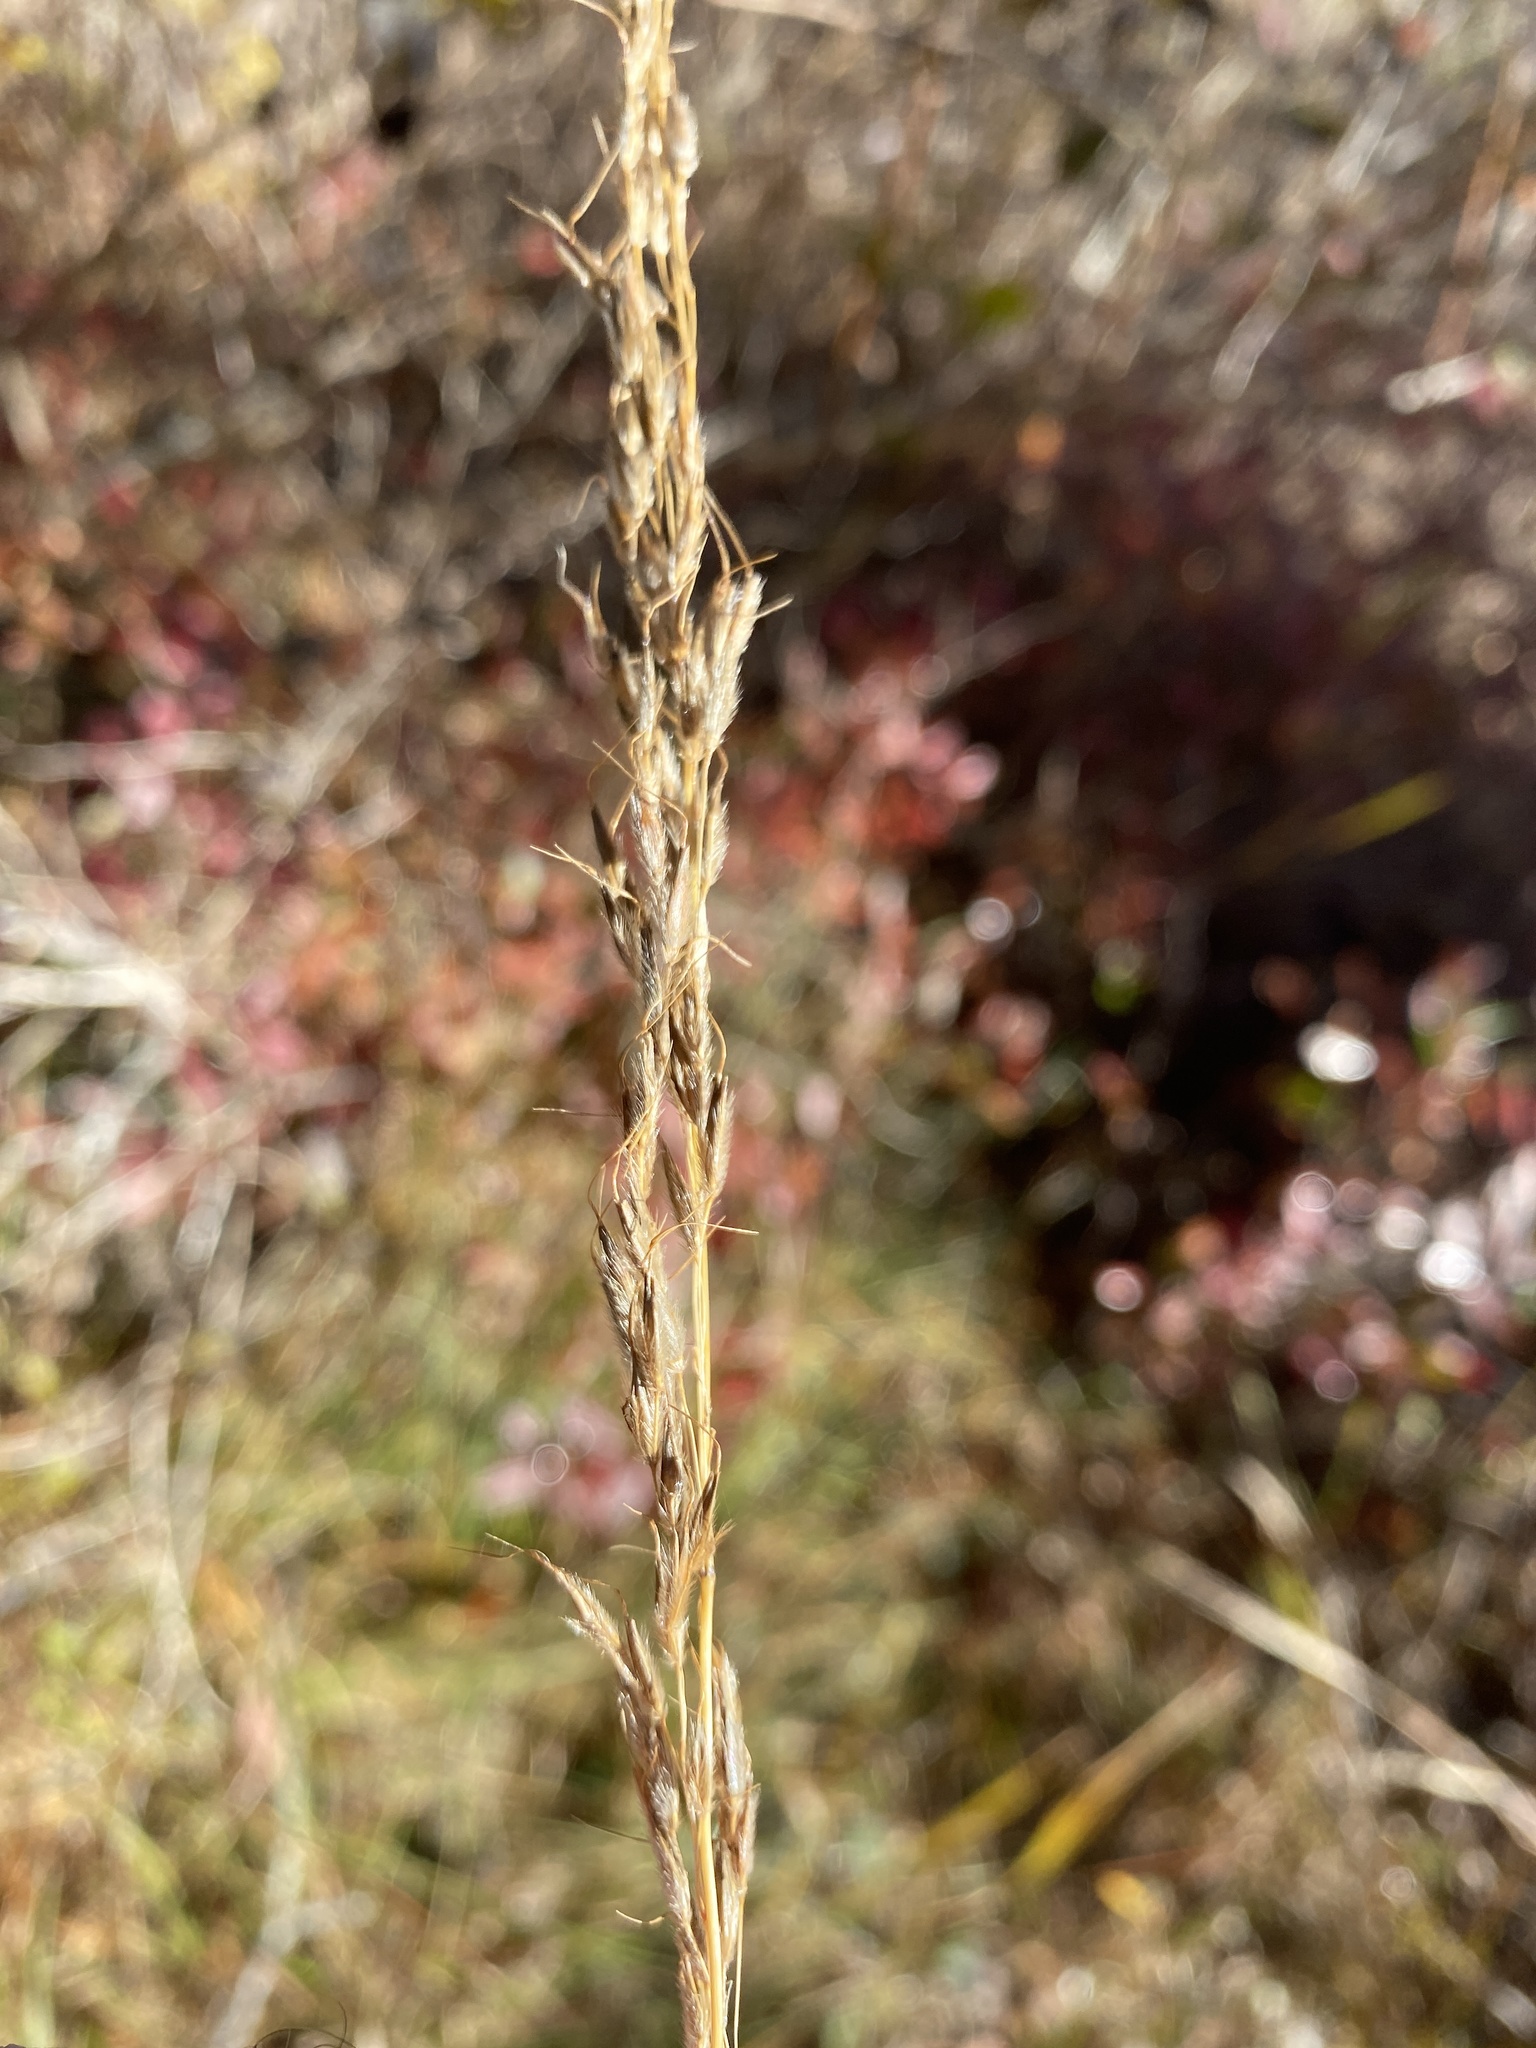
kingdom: Plantae
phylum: Tracheophyta
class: Liliopsida
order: Poales
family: Poaceae
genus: Sorghastrum
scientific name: Sorghastrum nutans
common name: Indian grass
